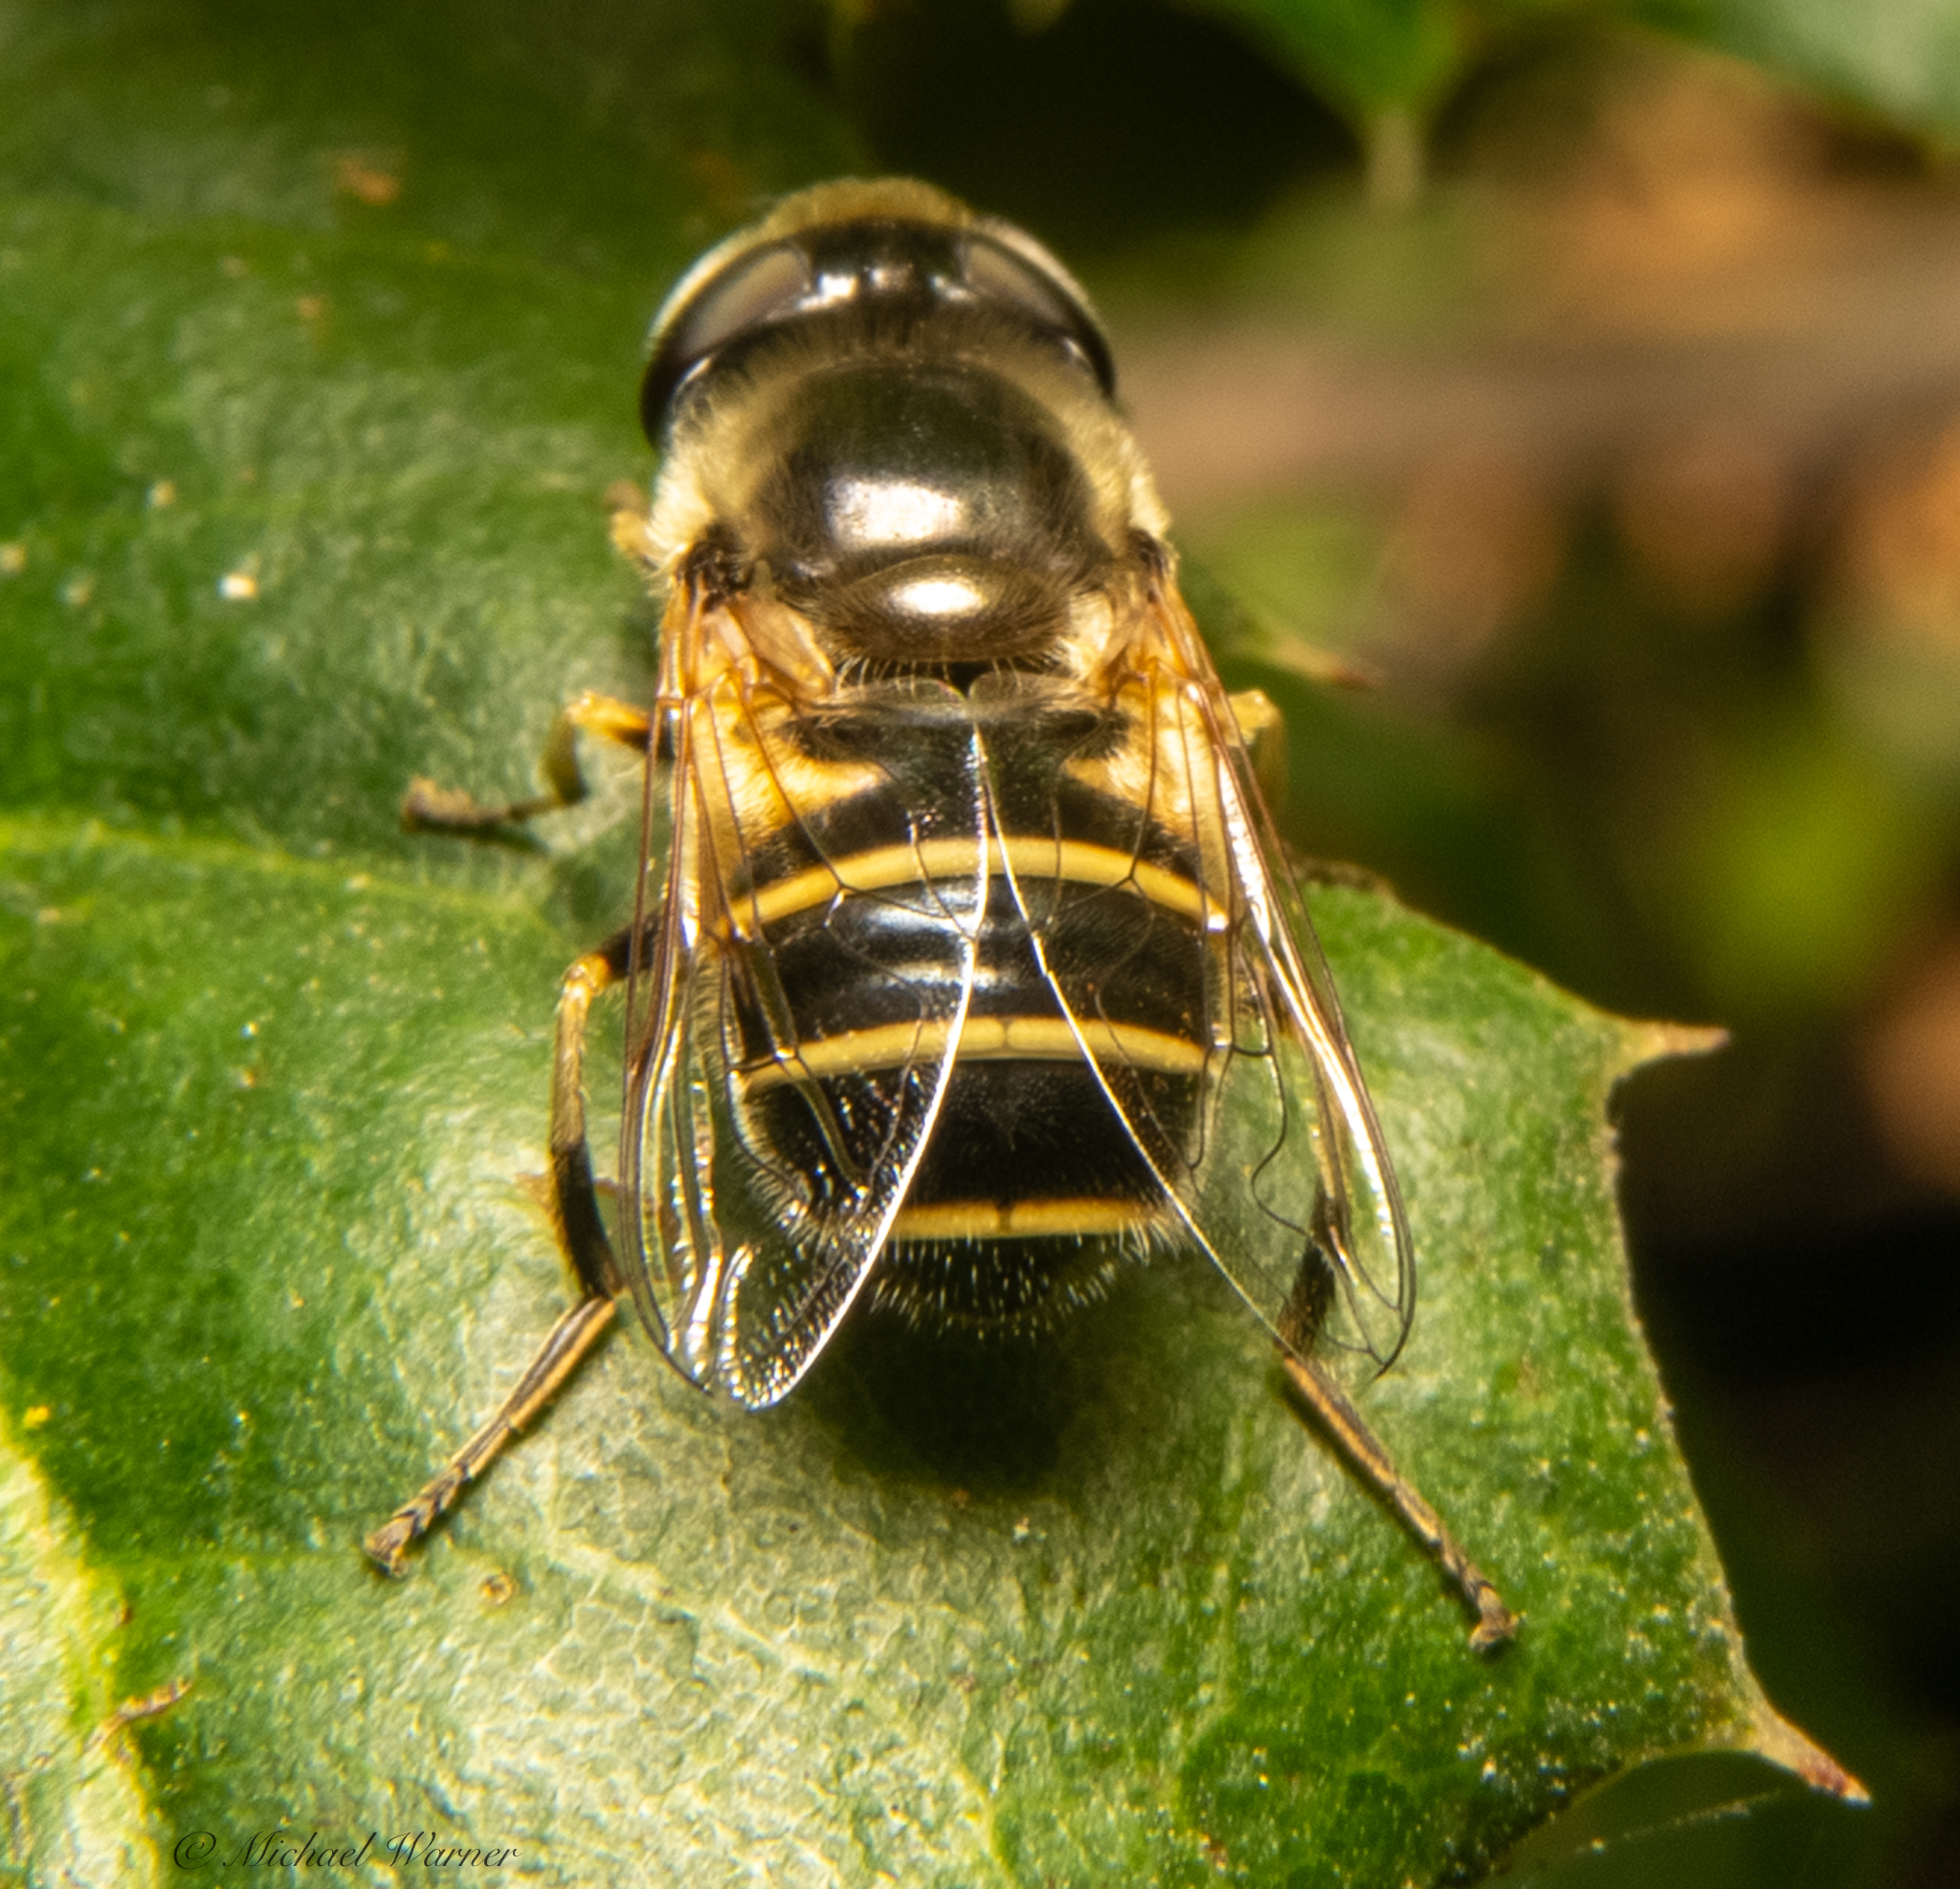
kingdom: Animalia
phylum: Arthropoda
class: Insecta
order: Diptera
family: Syrphidae
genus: Eristalis
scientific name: Eristalis hirta
